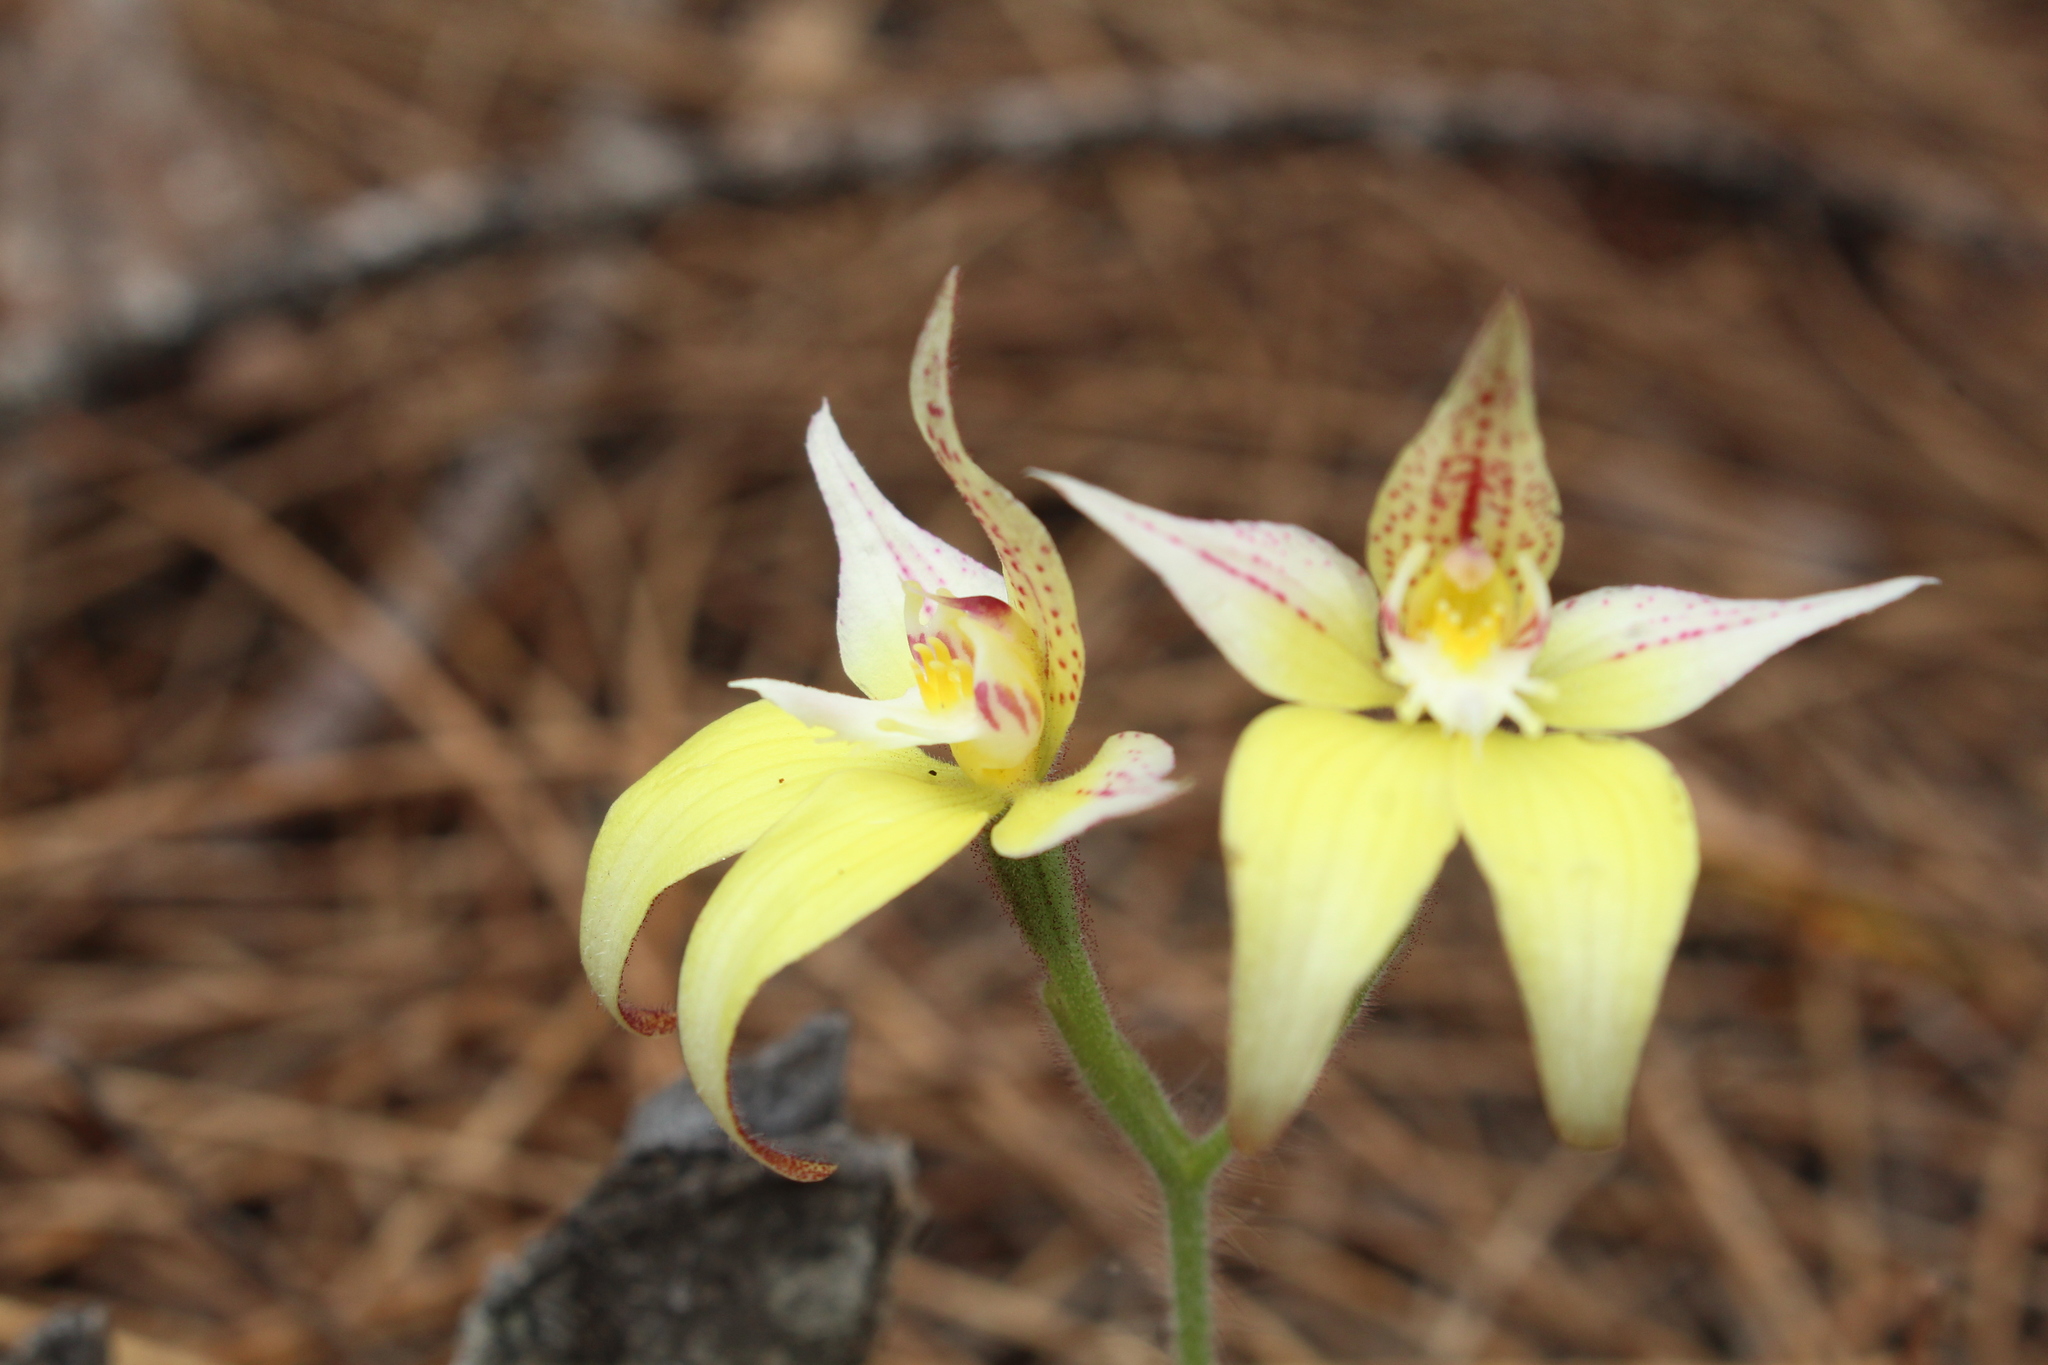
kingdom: Plantae
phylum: Tracheophyta
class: Liliopsida
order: Asparagales
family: Orchidaceae
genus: Caladenia
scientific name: Caladenia flava
